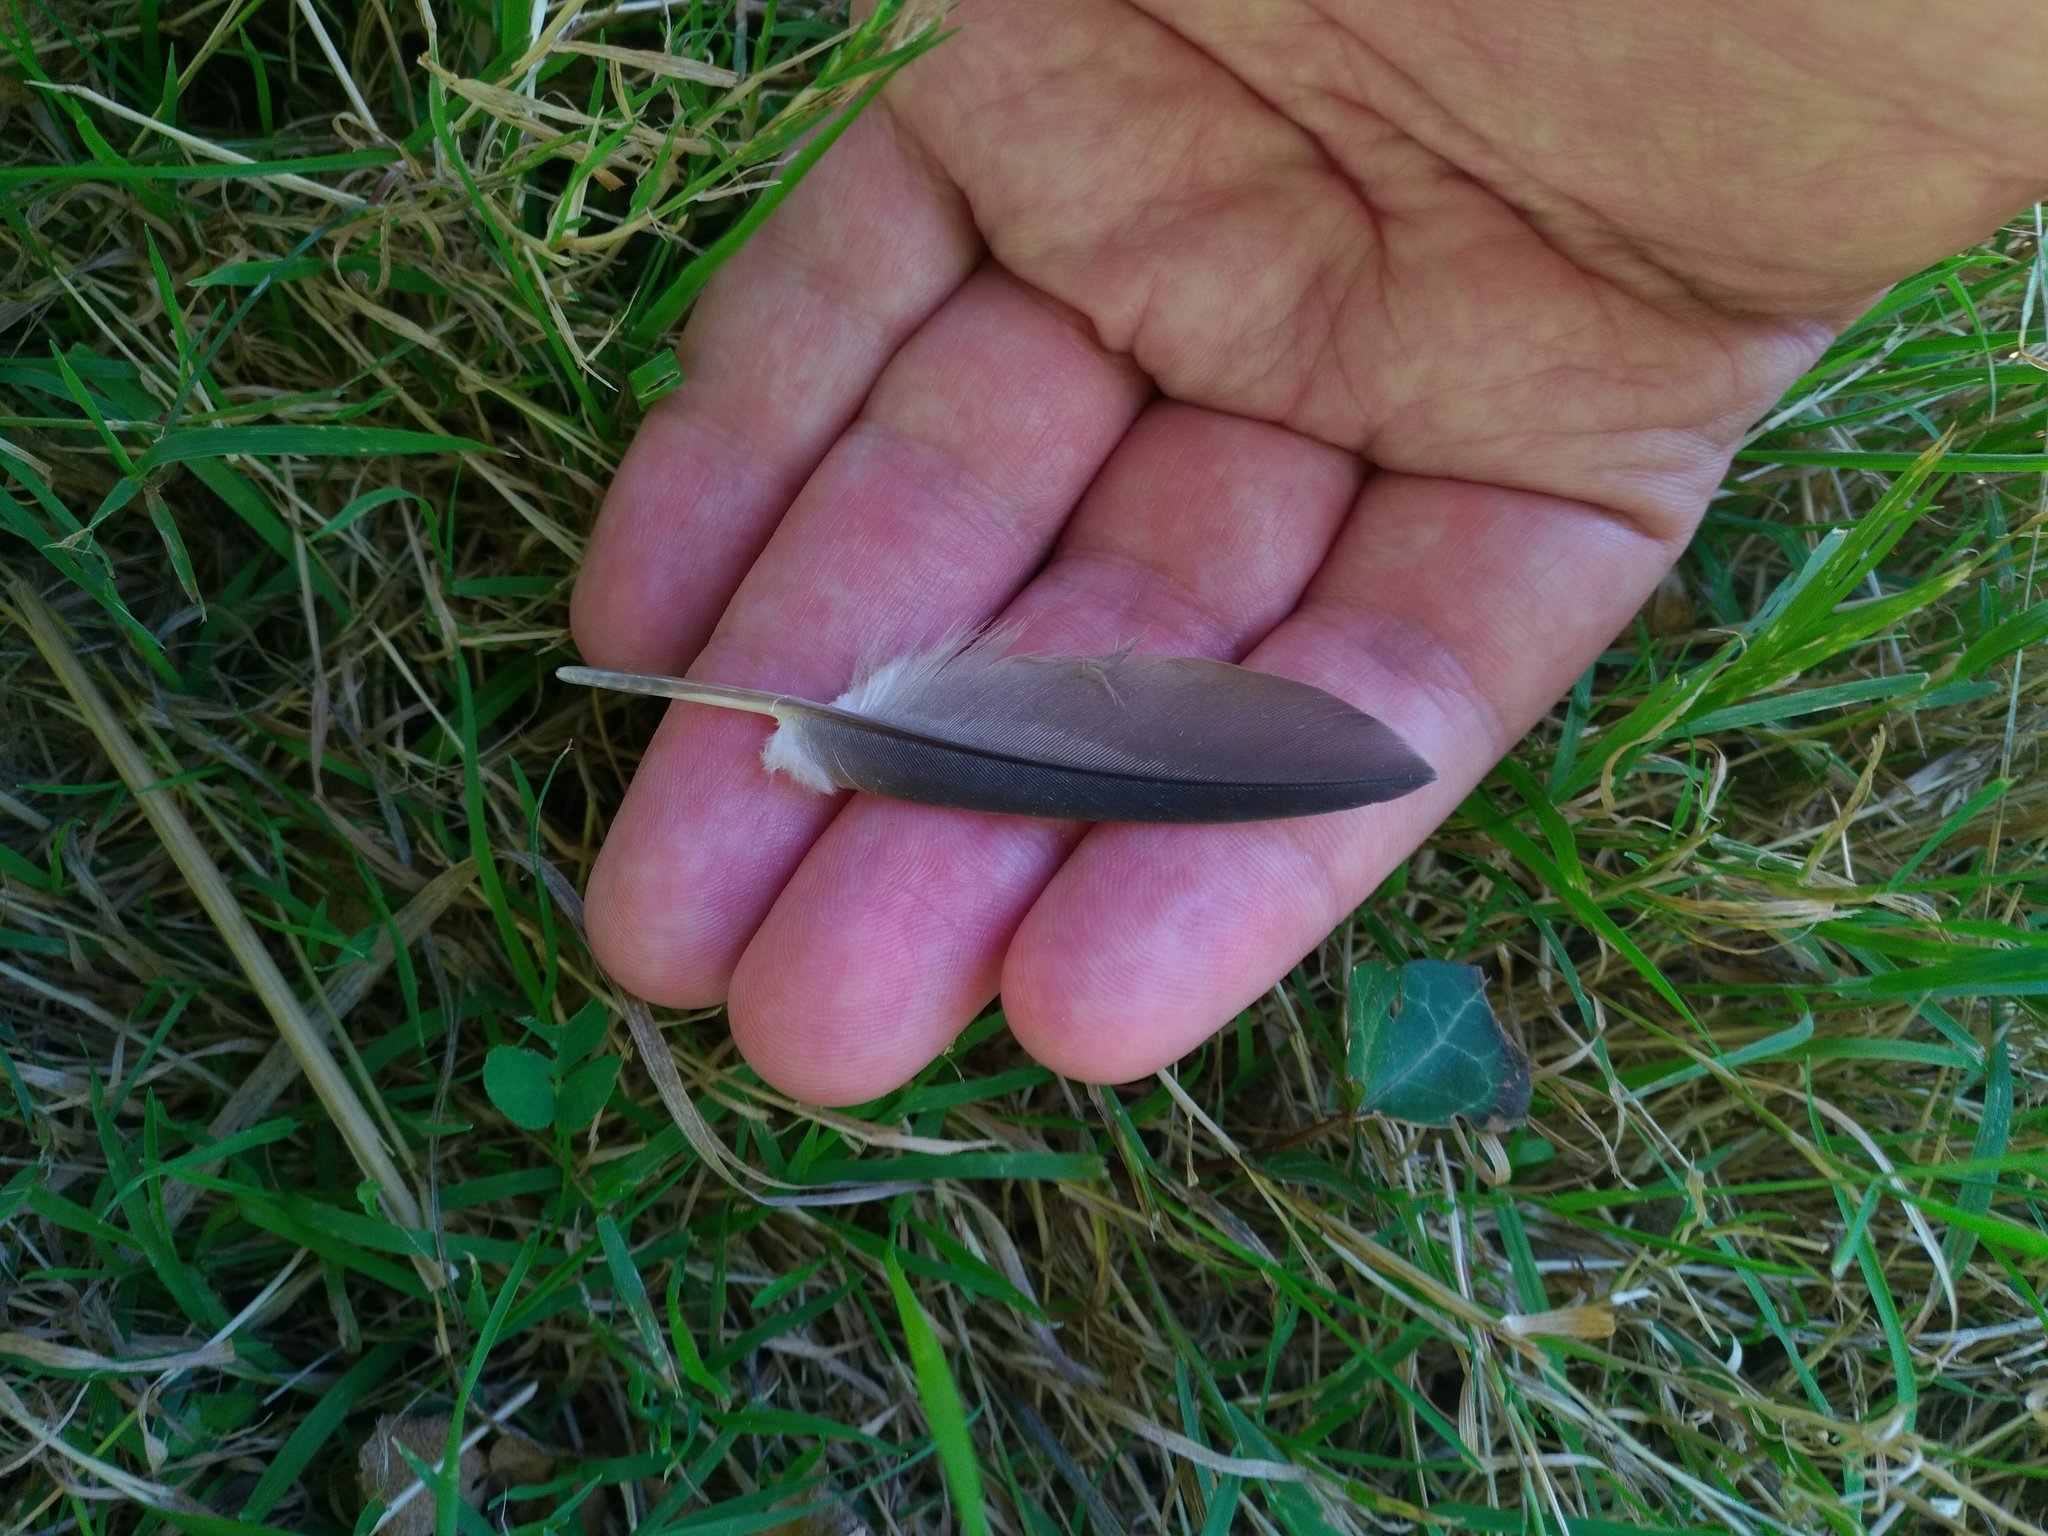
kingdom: Animalia
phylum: Chordata
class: Aves
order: Columbiformes
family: Columbidae
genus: Columba
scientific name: Columba palumbus
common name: Common wood pigeon
